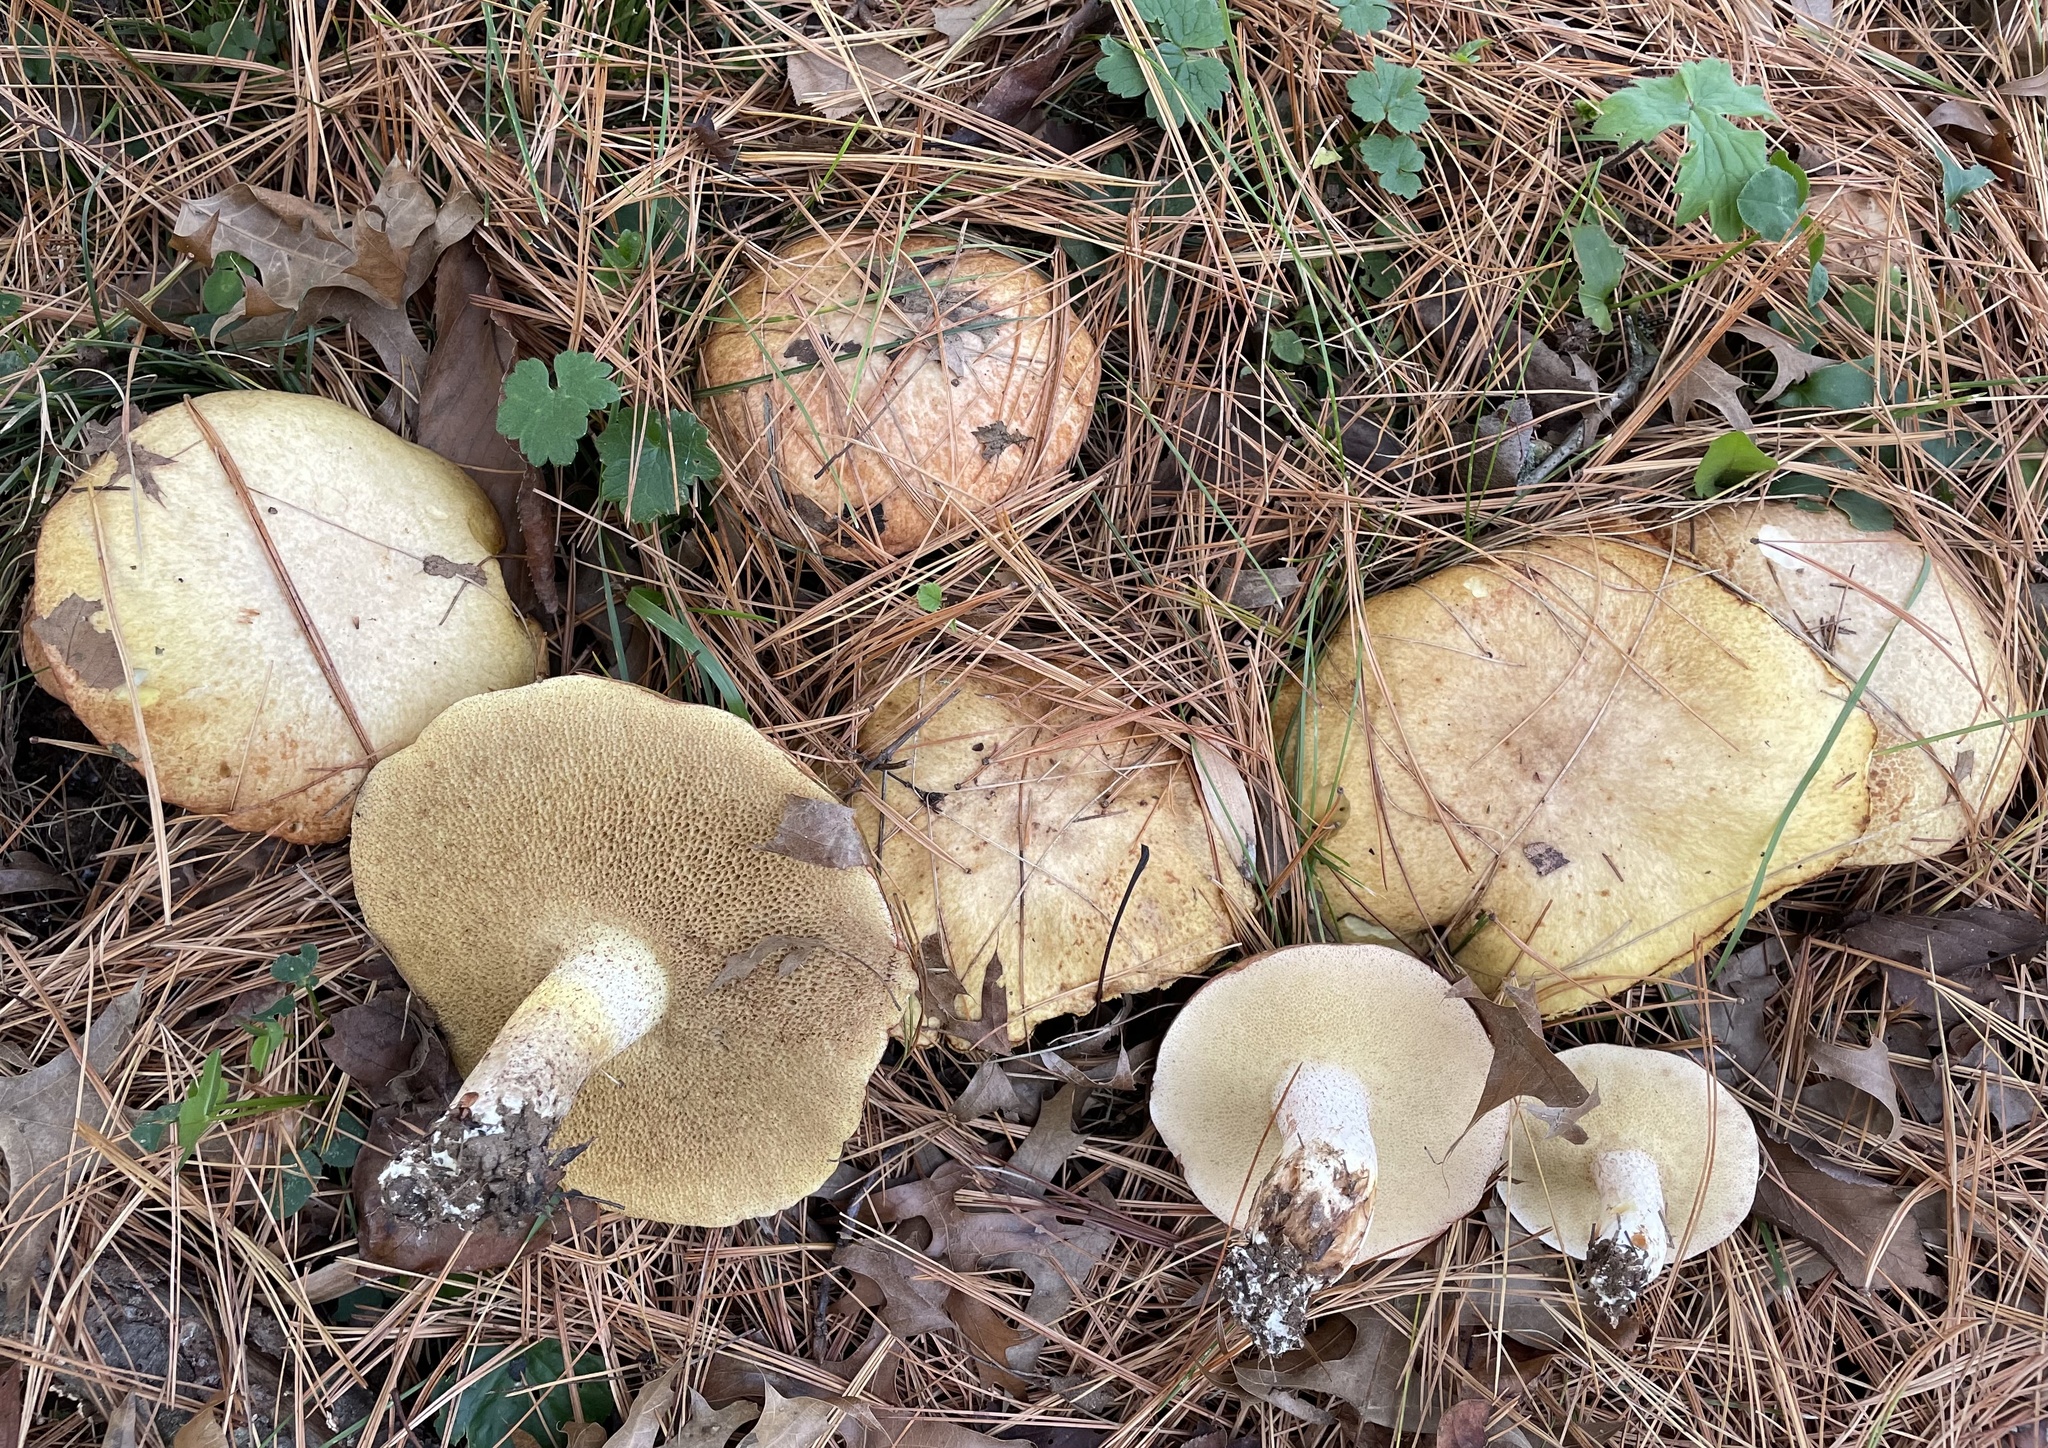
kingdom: Fungi
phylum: Basidiomycota
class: Agaricomycetes
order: Boletales
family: Suillaceae
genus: Fuscoboletinus
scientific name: Fuscoboletinus weaverae
